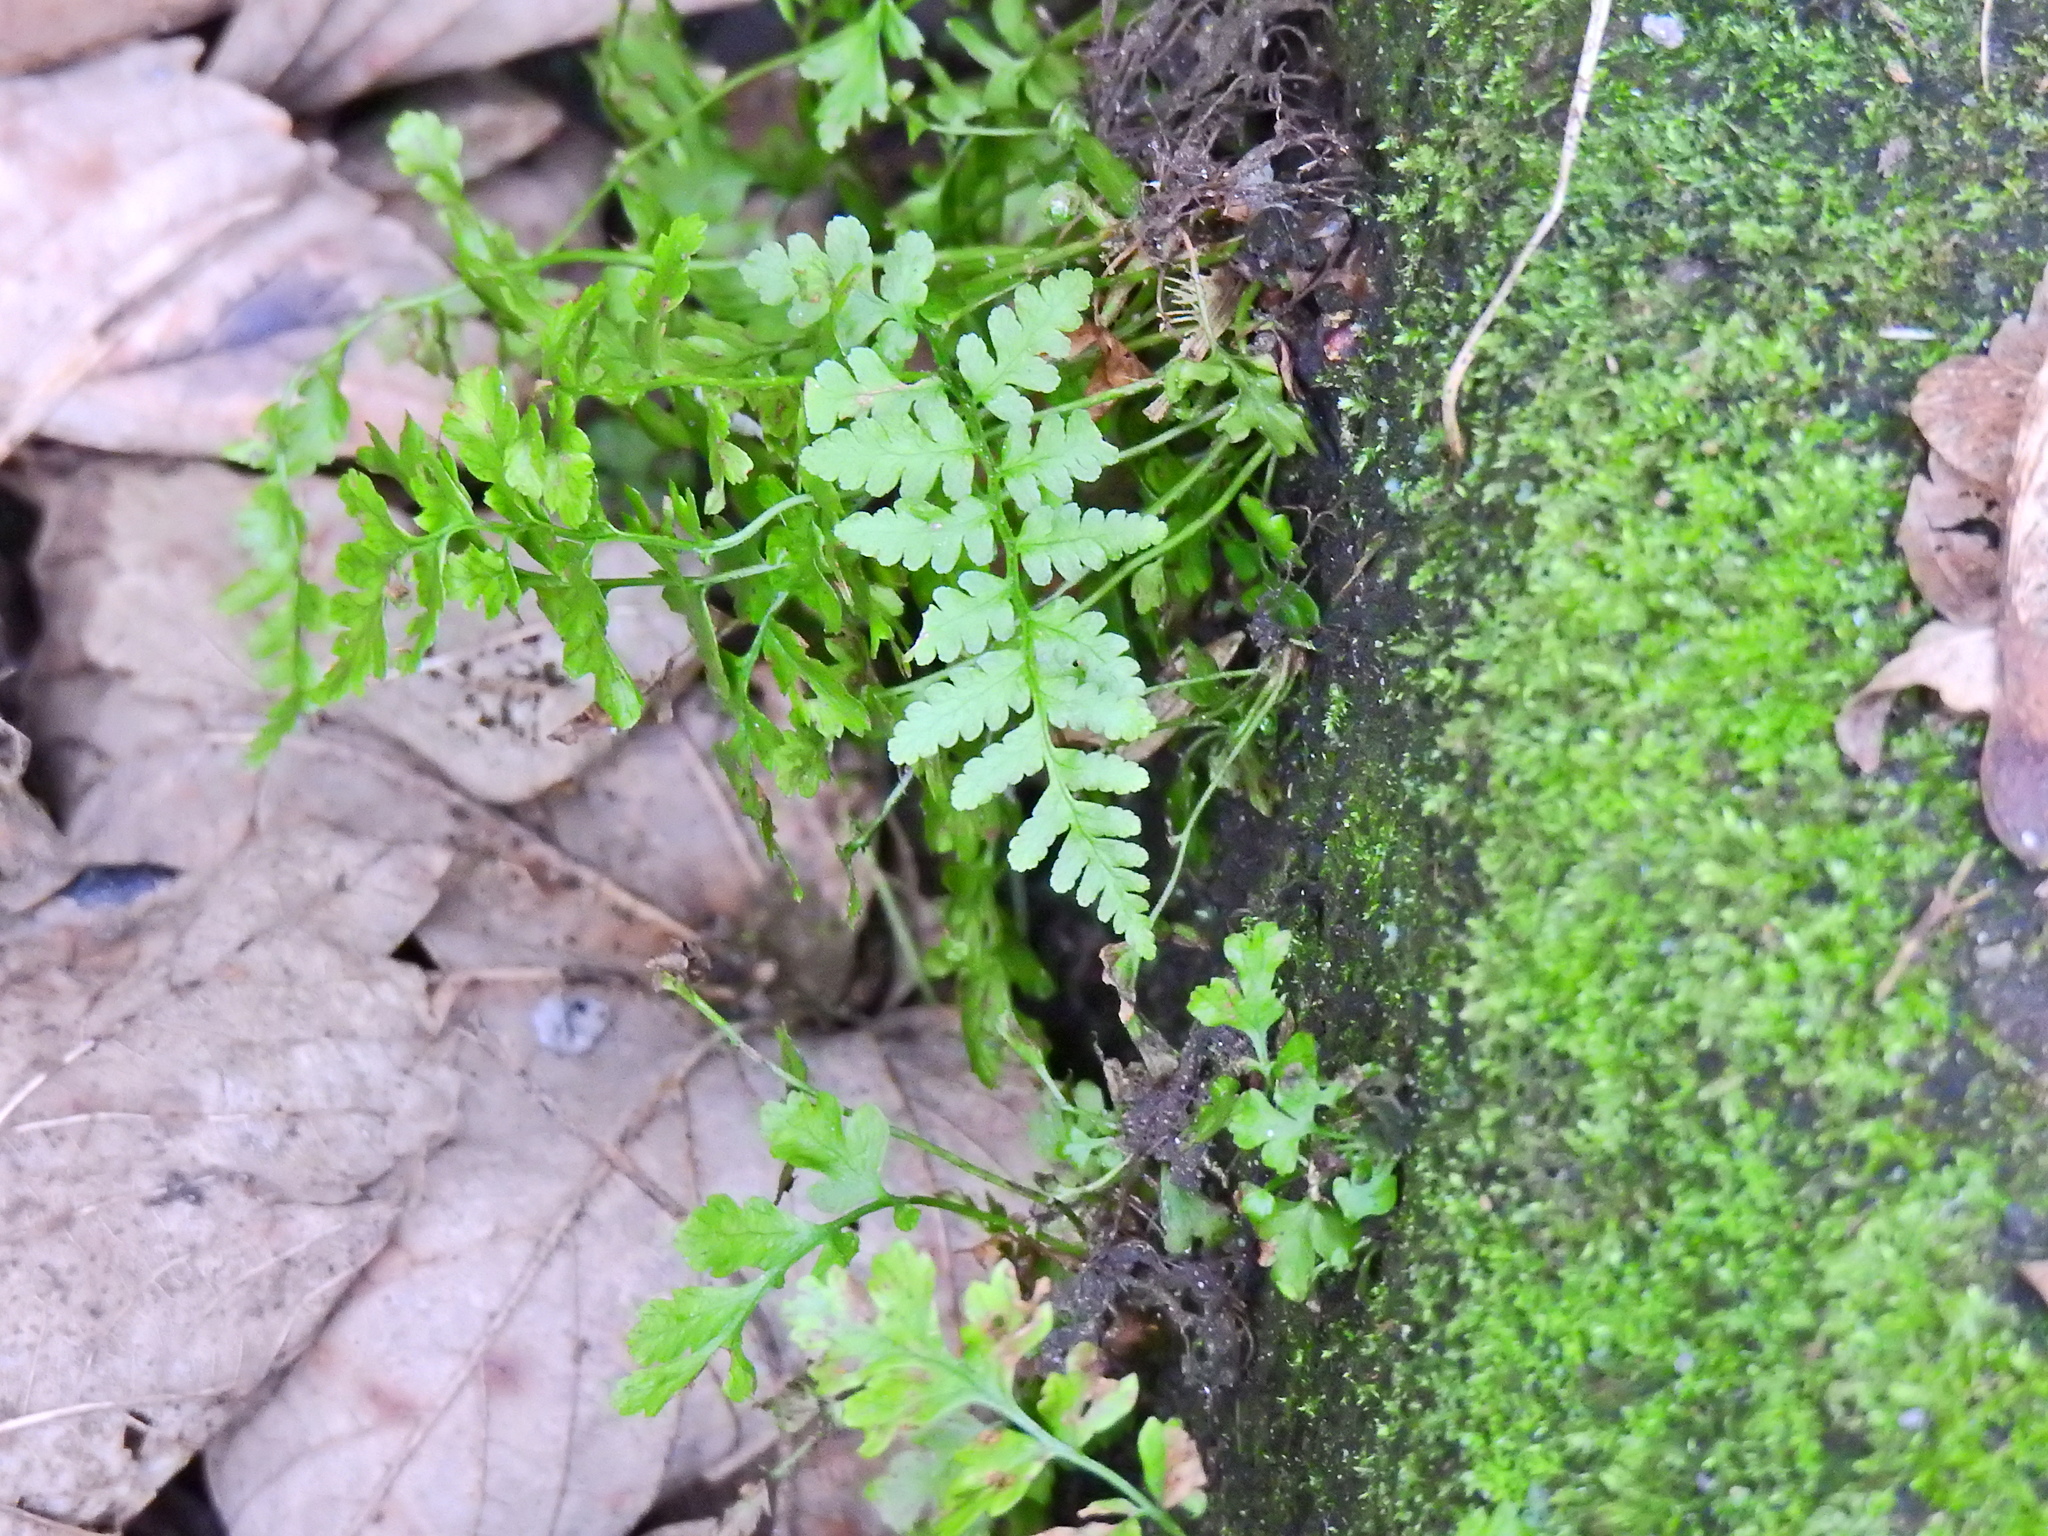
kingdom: Plantae
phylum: Tracheophyta
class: Polypodiopsida
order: Polypodiales
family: Aspleniaceae
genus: Asplenium
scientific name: Asplenium adiantum-nigrum
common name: Black spleenwort
